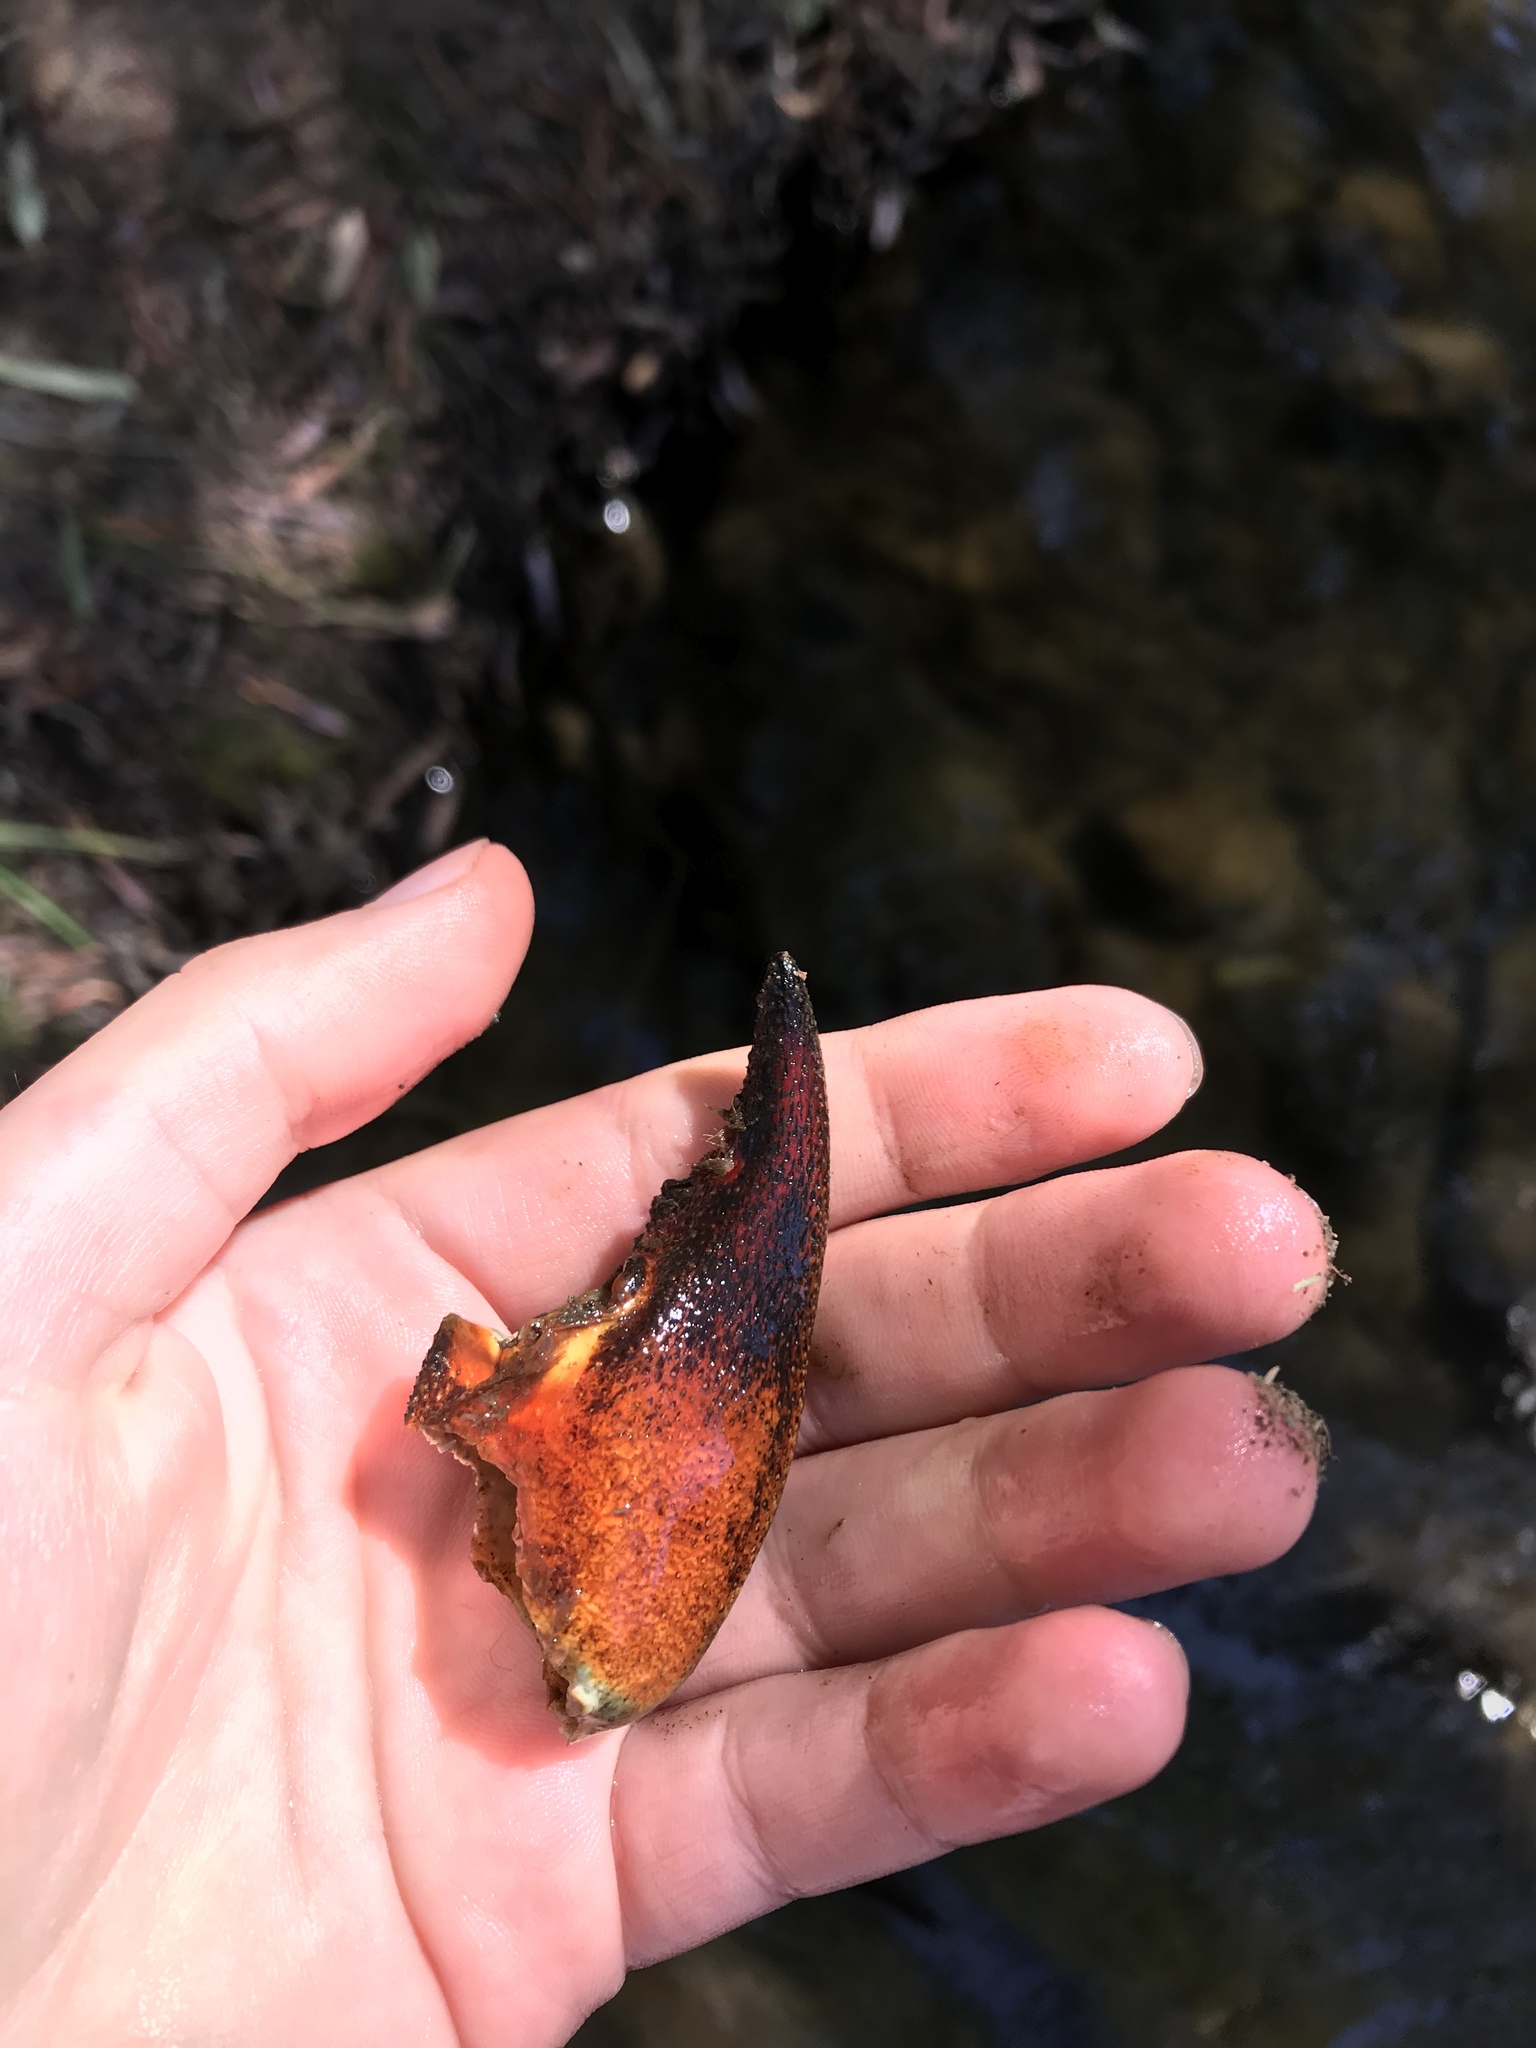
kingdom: Animalia
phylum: Arthropoda
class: Malacostraca
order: Decapoda
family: Astacidae
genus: Pacifastacus
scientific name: Pacifastacus leniusculus
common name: Signal crayfish
